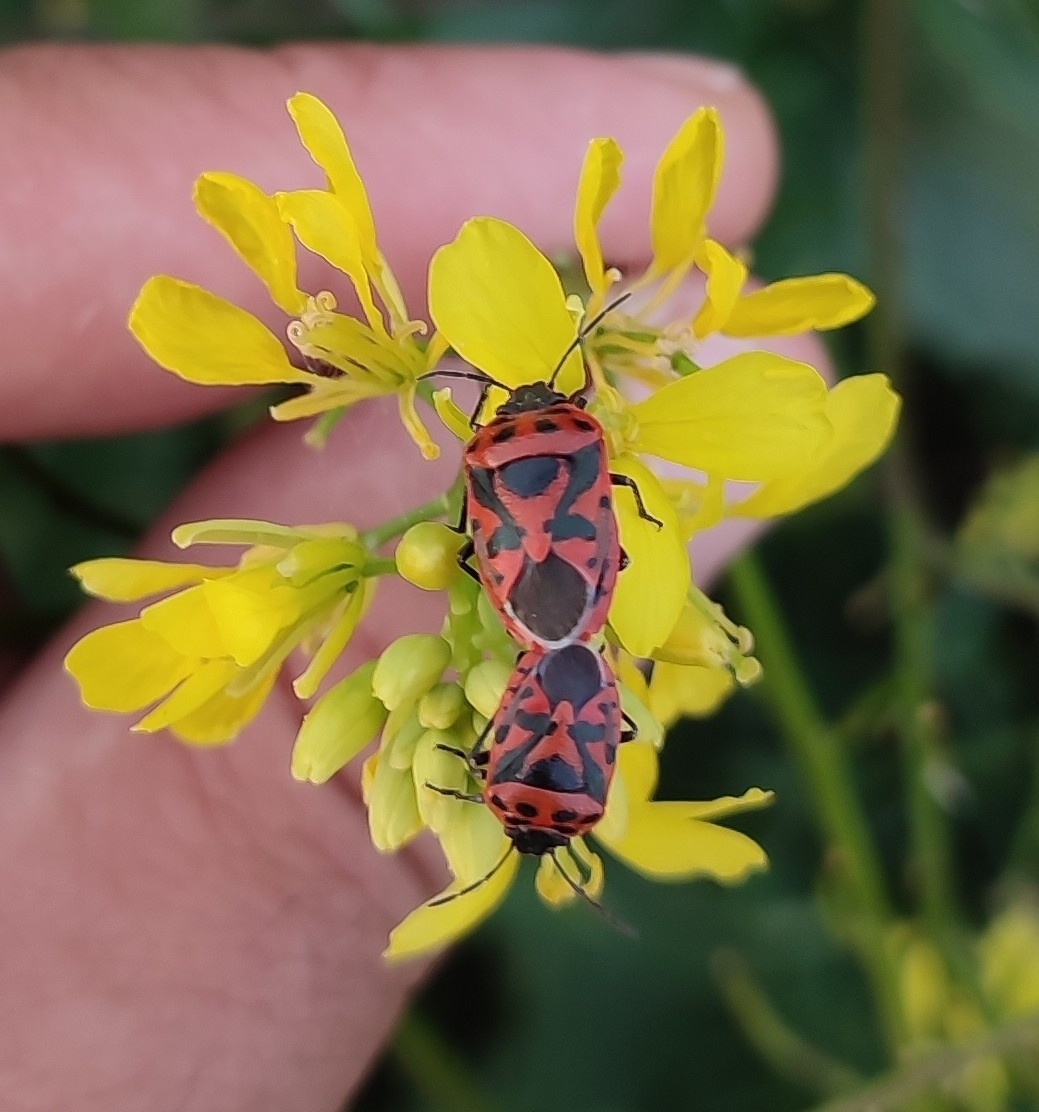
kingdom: Animalia
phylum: Arthropoda
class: Insecta
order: Hemiptera
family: Pentatomidae
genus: Eurydema
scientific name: Eurydema ornata
